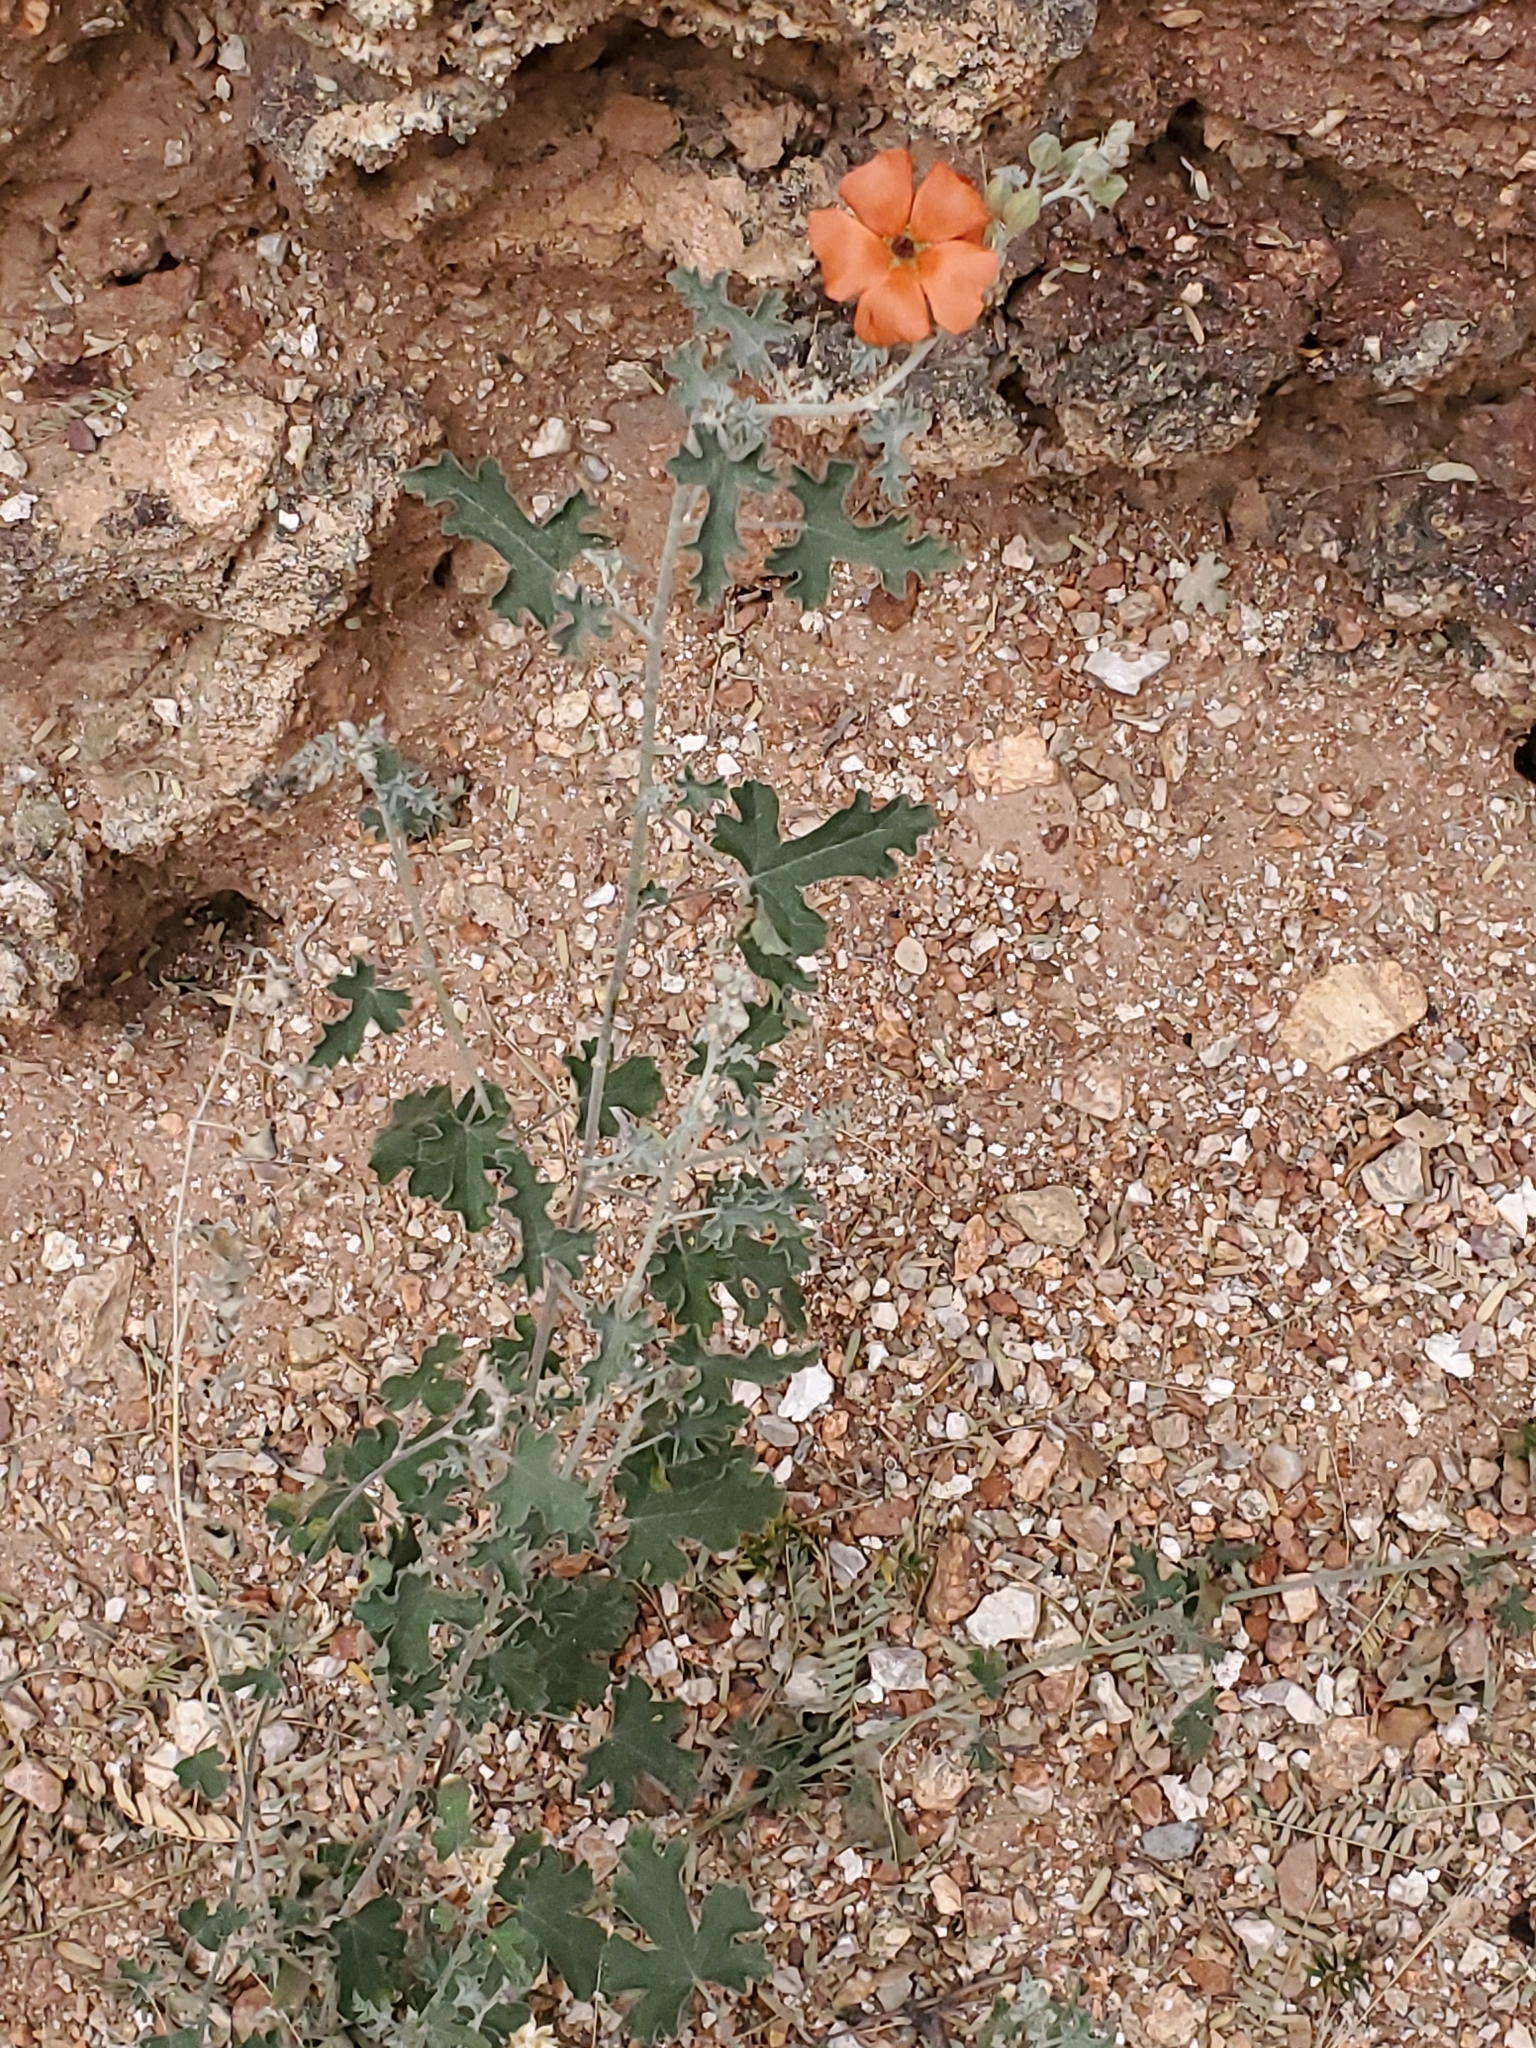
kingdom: Plantae
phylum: Tracheophyta
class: Magnoliopsida
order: Malvales
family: Malvaceae
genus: Sphaeralcea
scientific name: Sphaeralcea laxa
